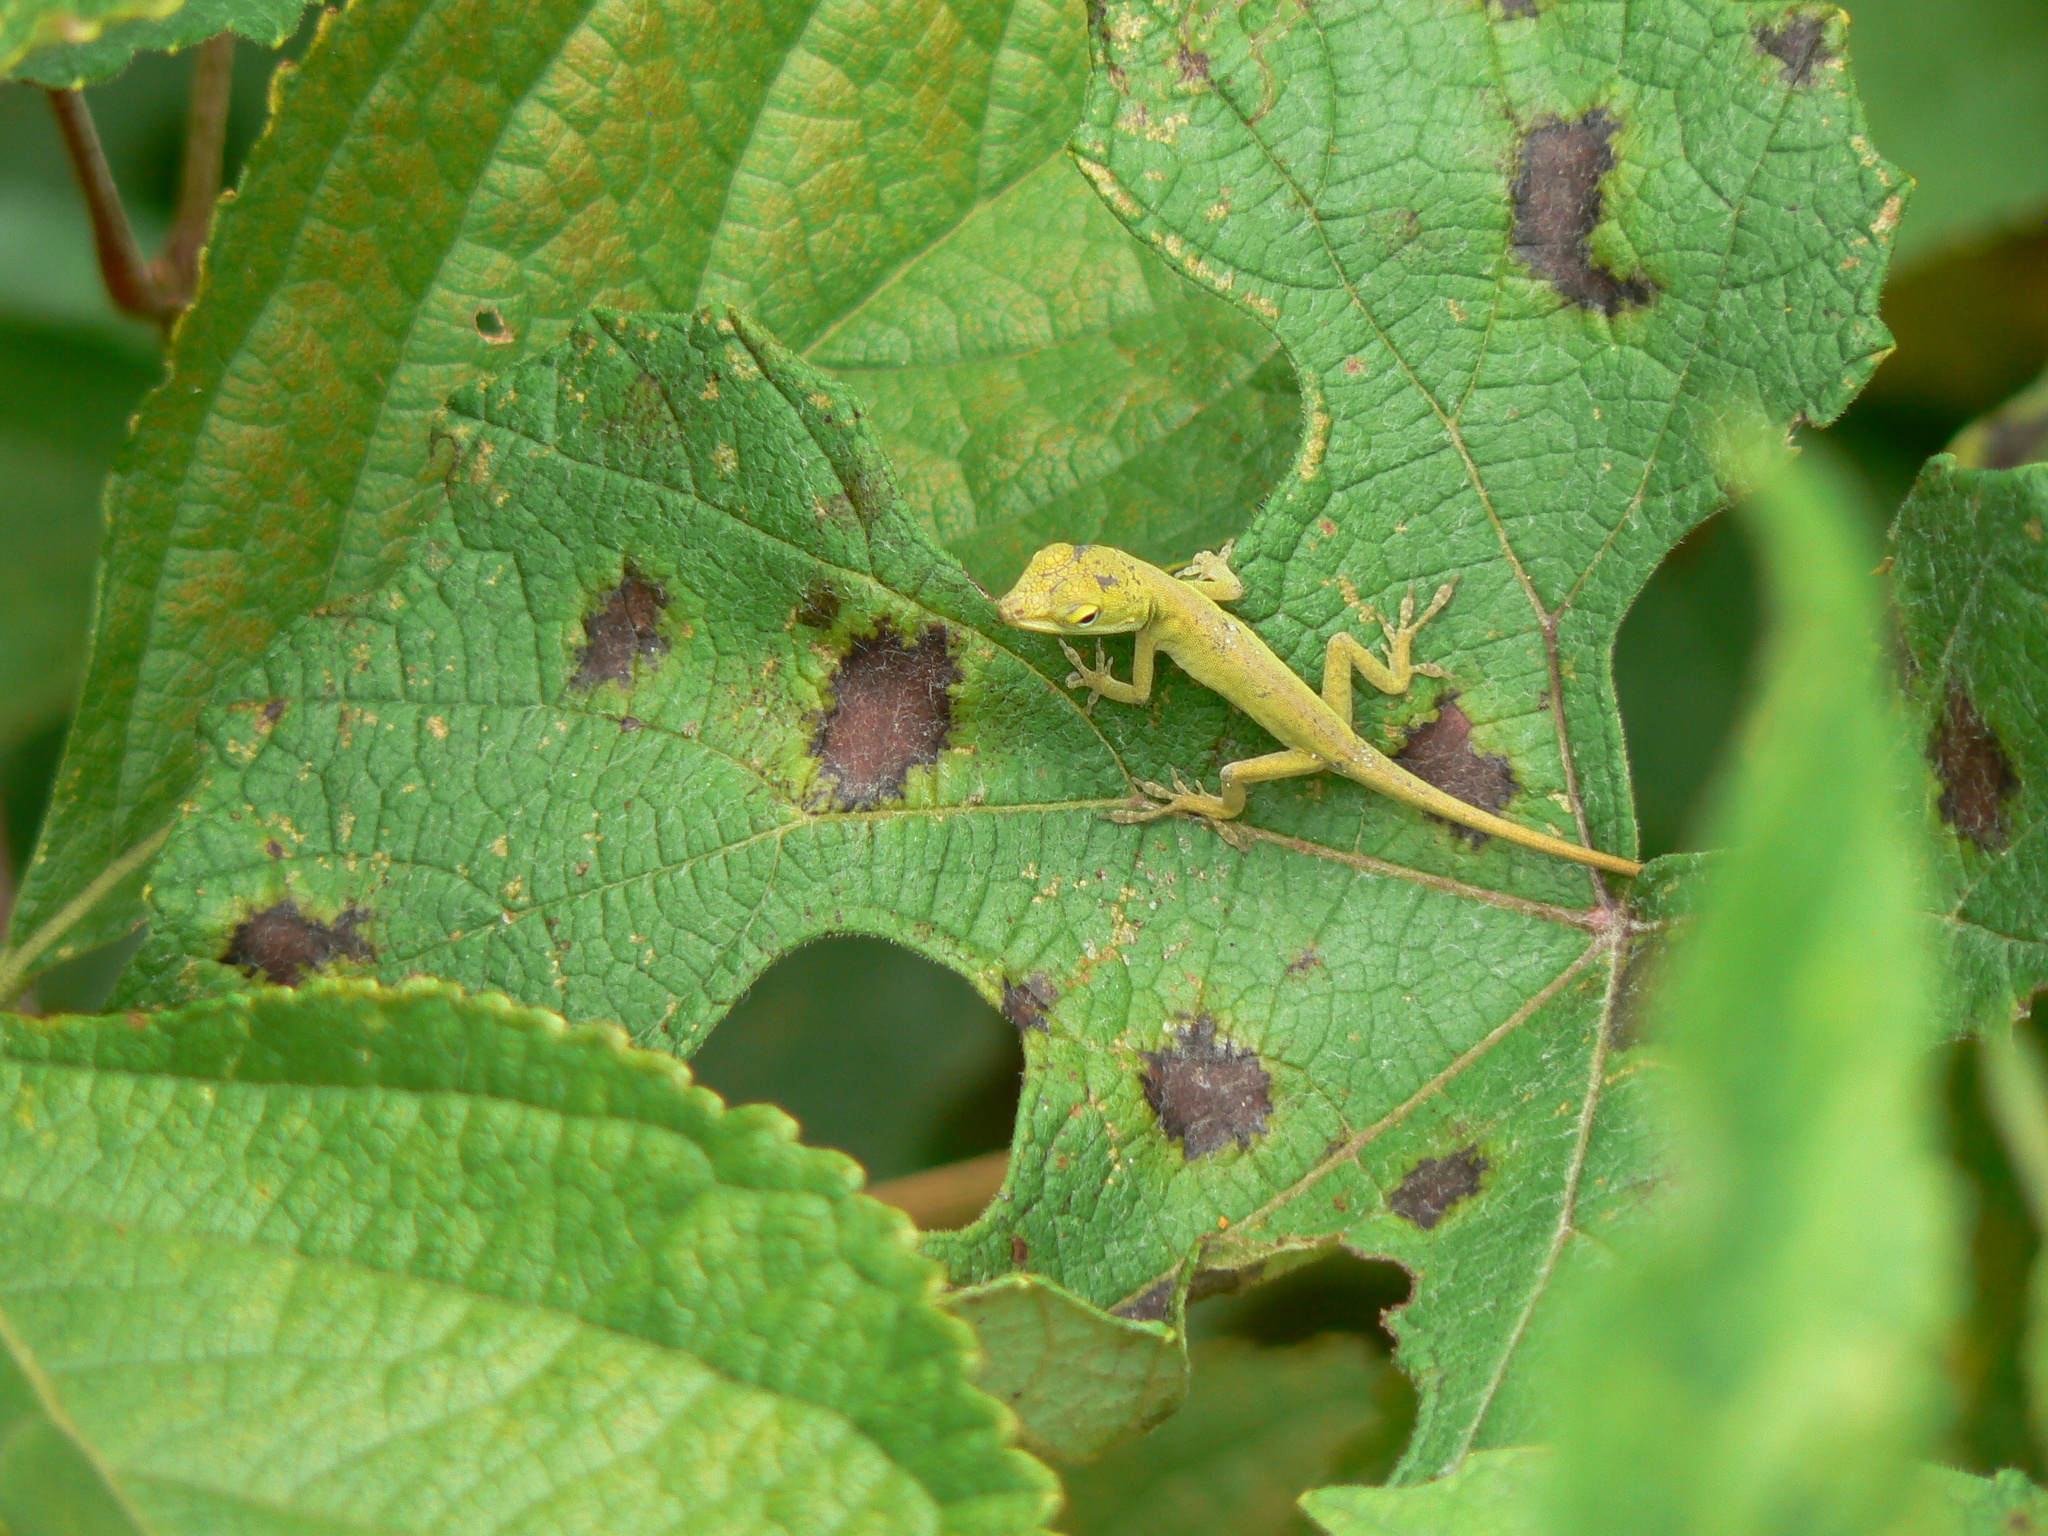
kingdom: Animalia
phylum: Chordata
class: Squamata
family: Dactyloidae
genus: Anolis
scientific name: Anolis carolinensis
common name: Green anole
